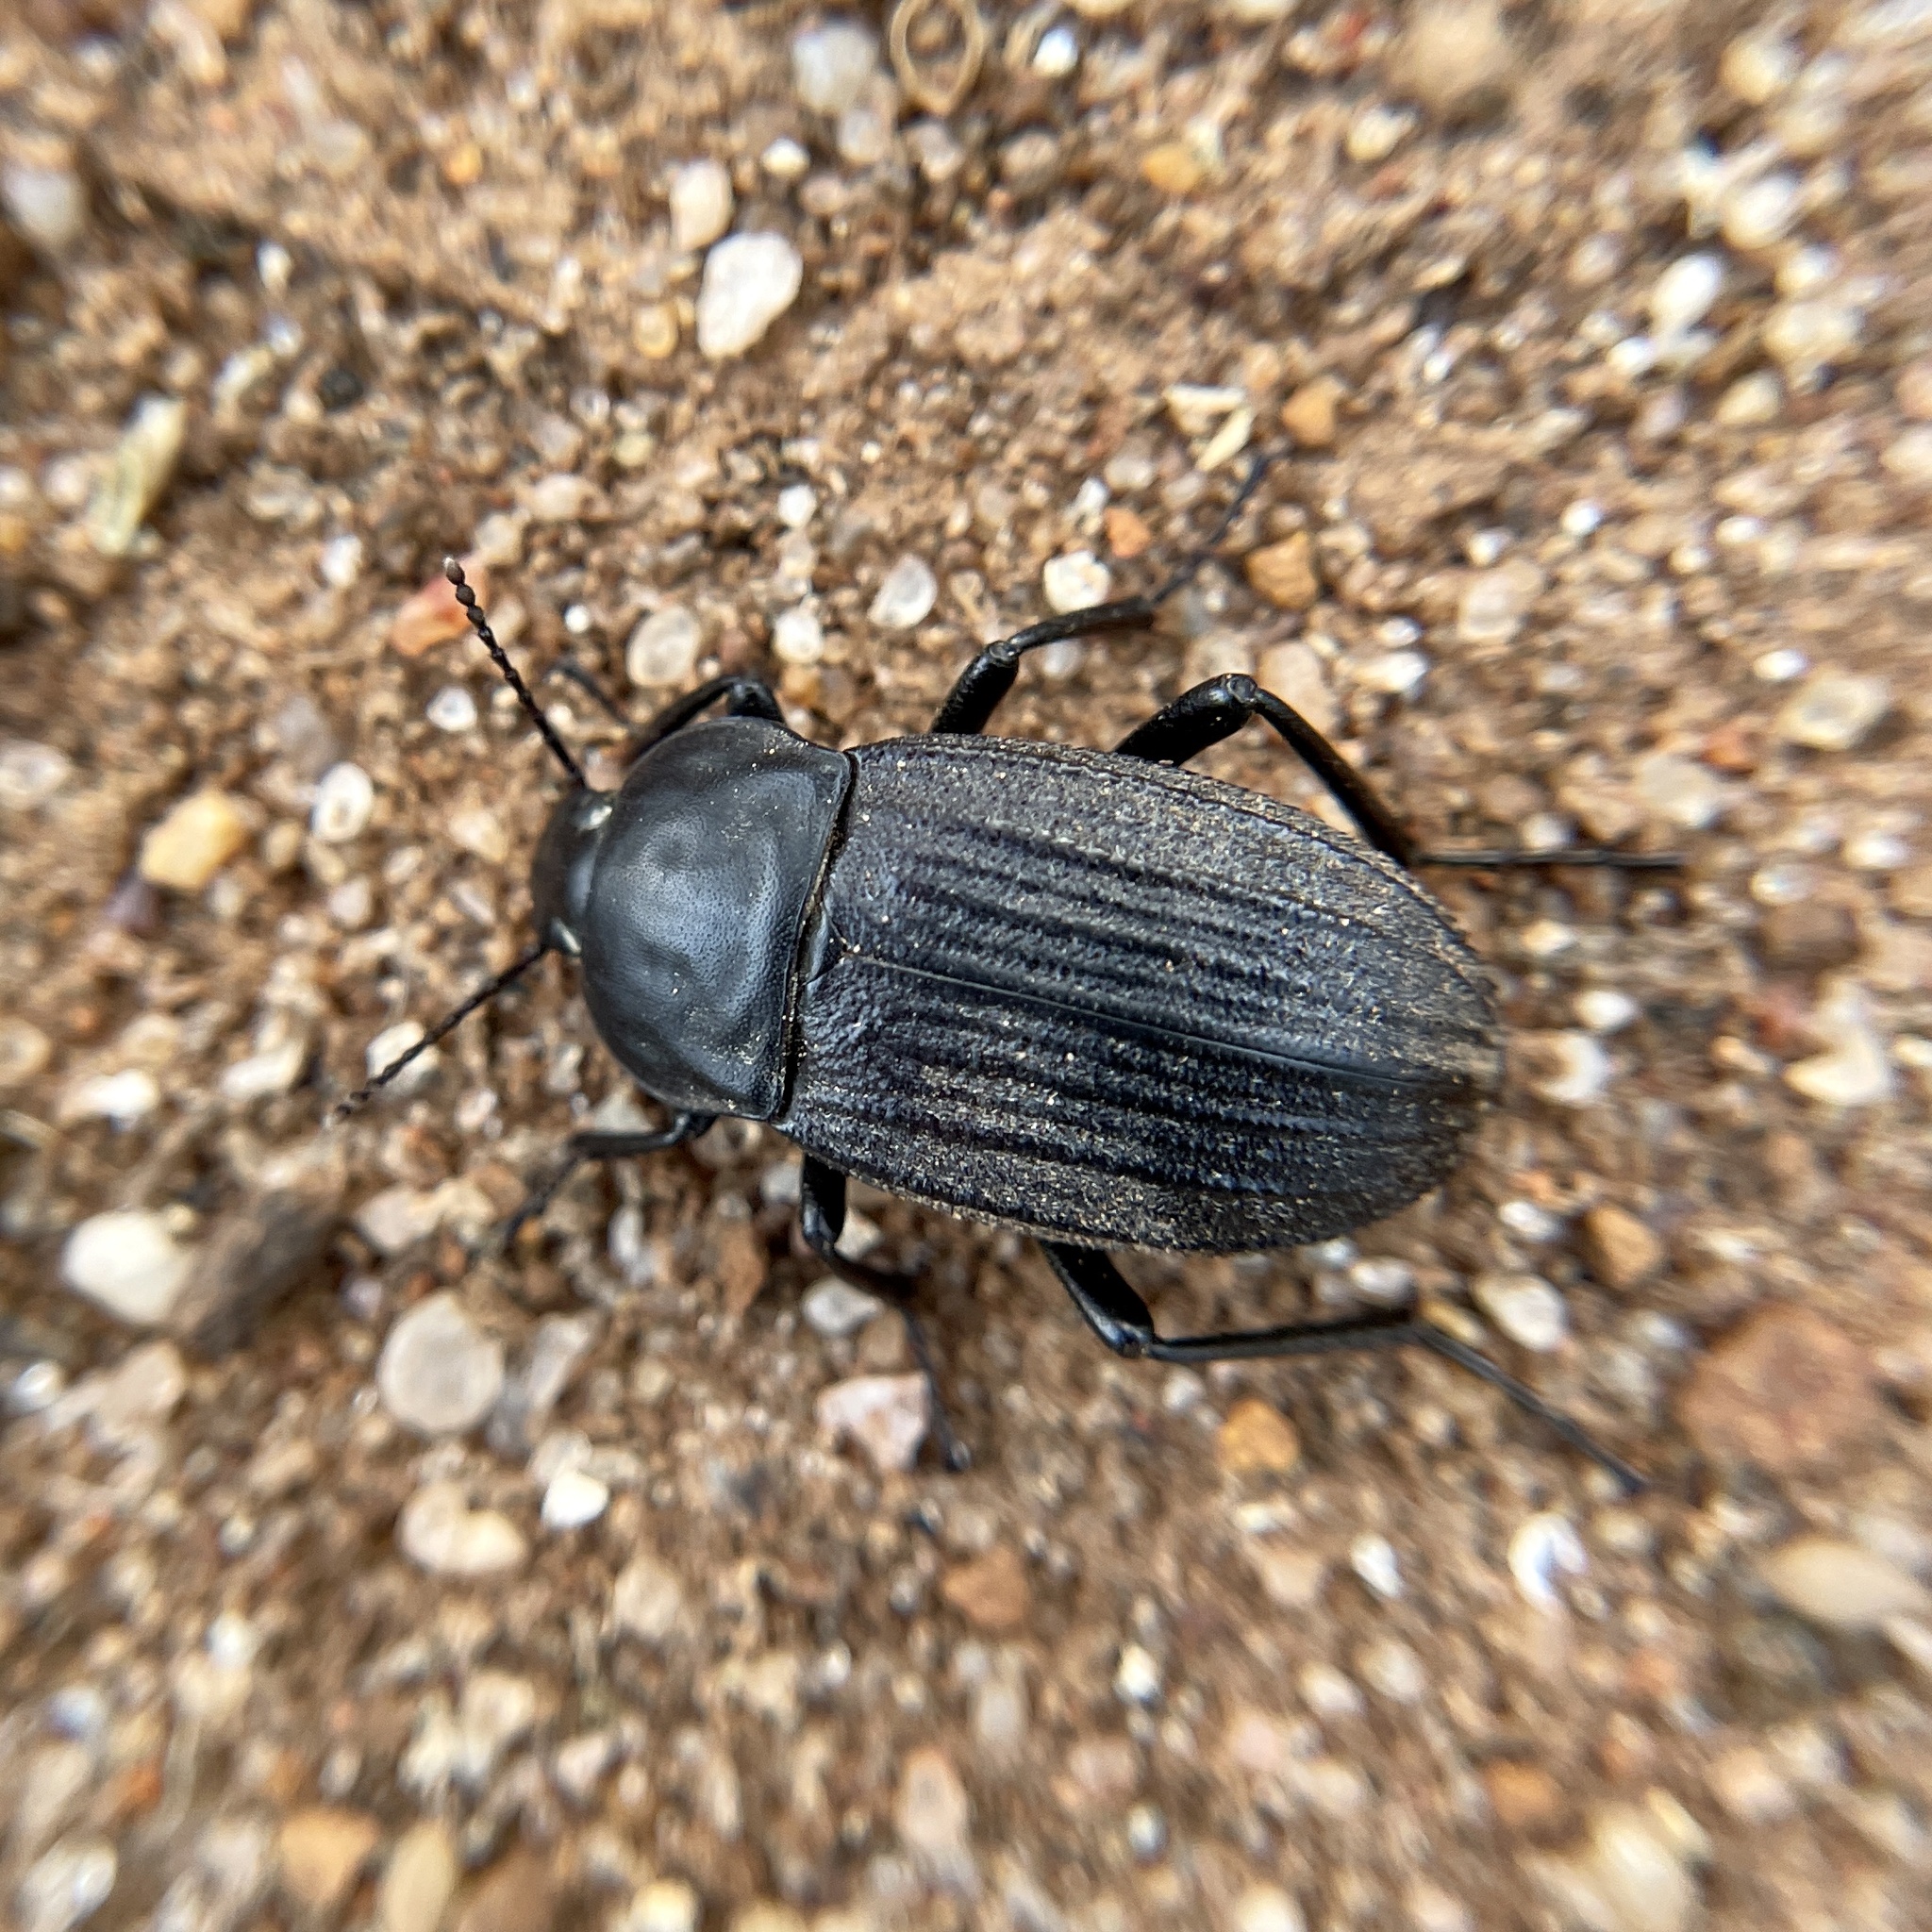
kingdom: Animalia
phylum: Arthropoda
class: Insecta
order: Coleoptera
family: Tenebrionidae
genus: Eleodes
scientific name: Eleodes tricostata
